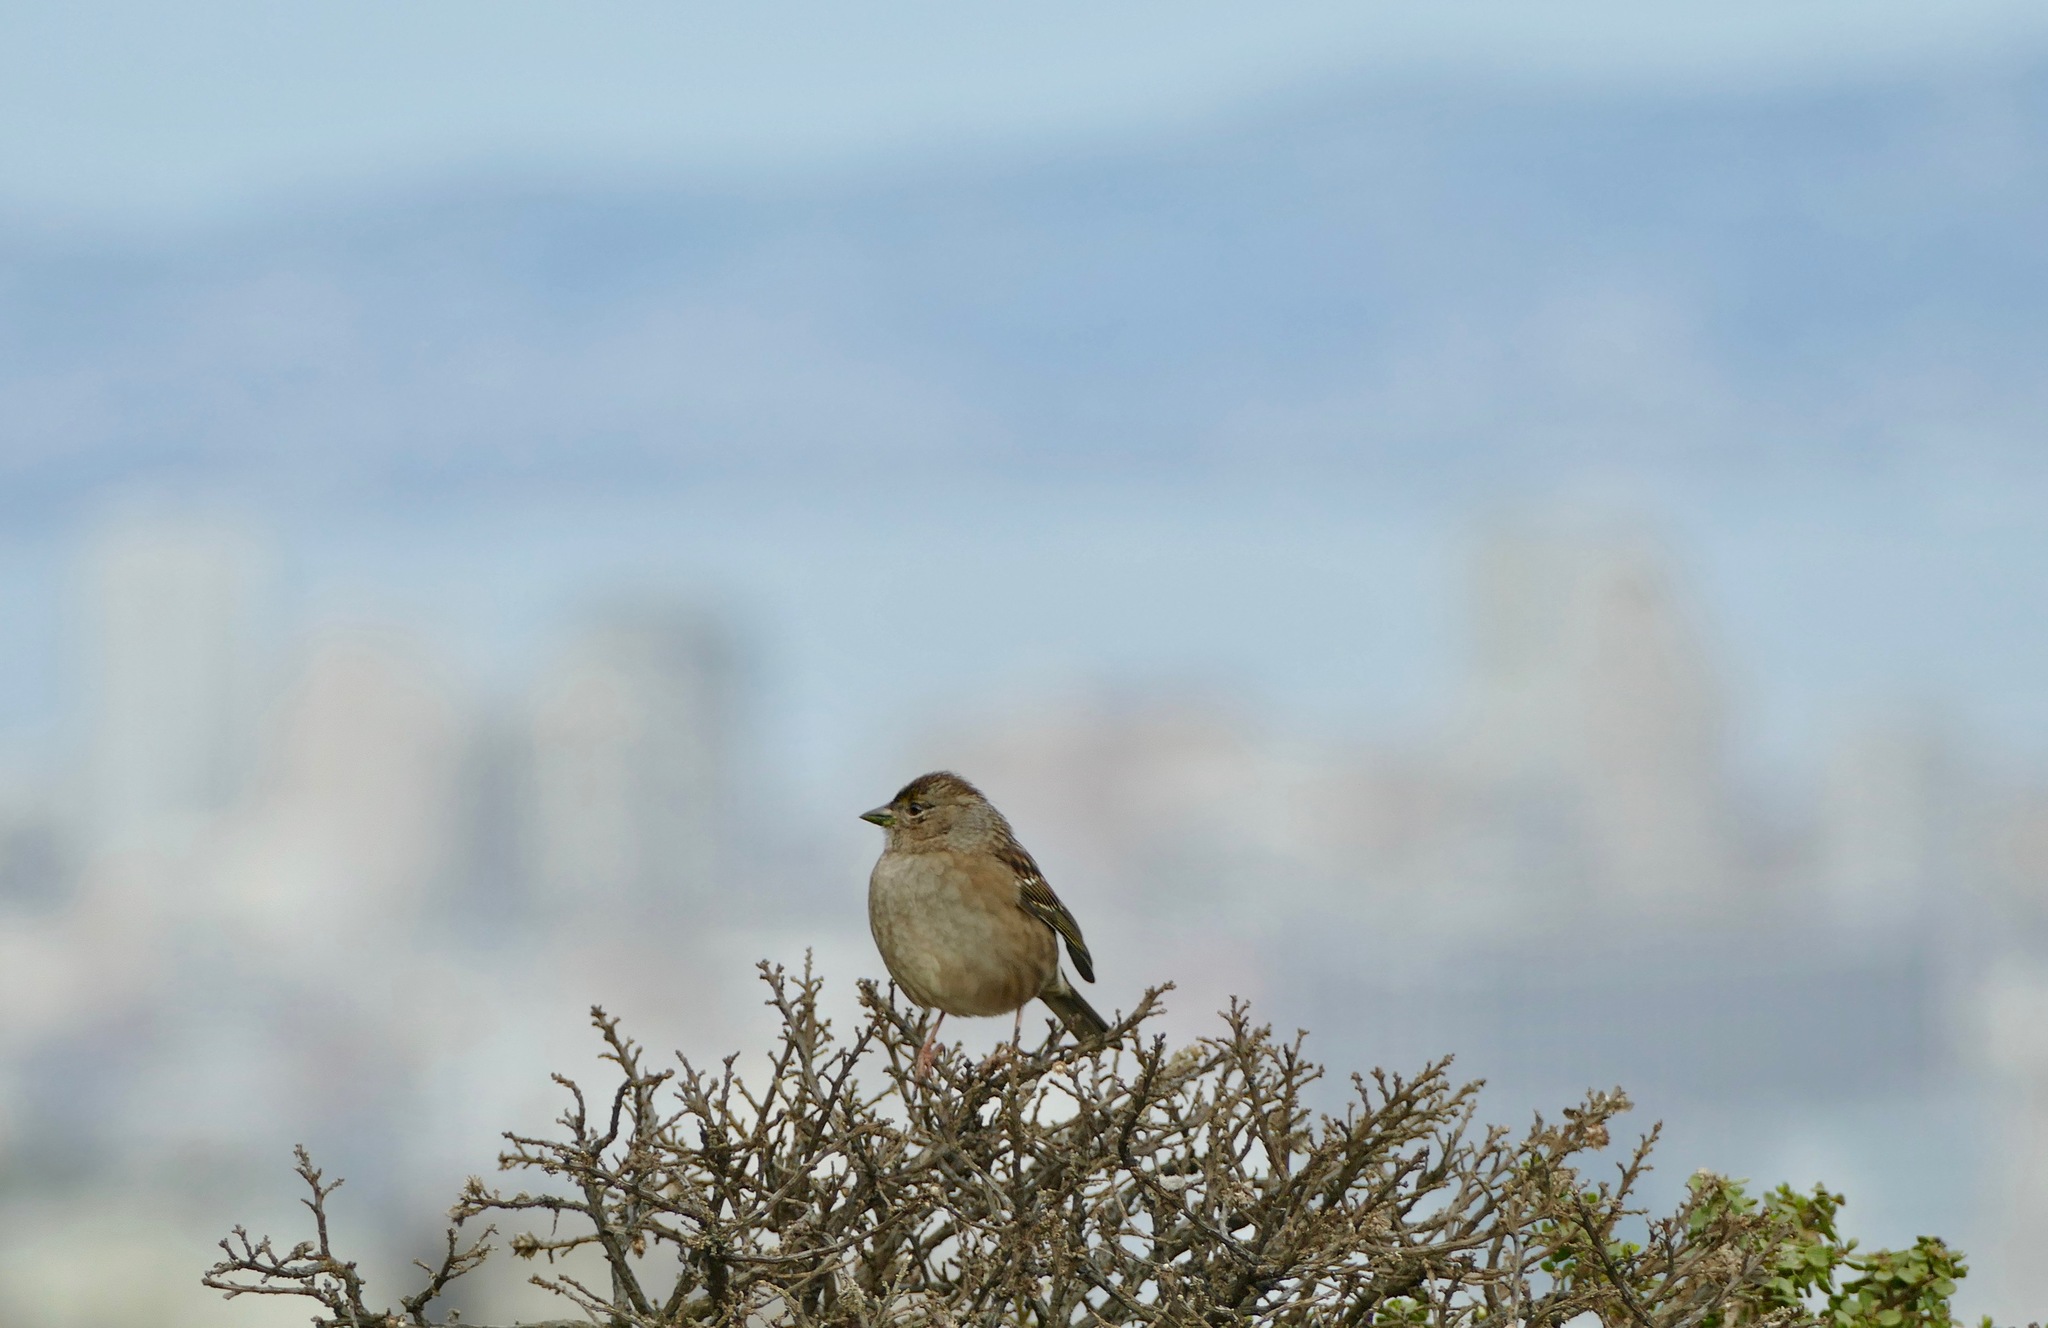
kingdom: Animalia
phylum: Chordata
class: Aves
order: Passeriformes
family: Passerellidae
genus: Zonotrichia
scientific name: Zonotrichia atricapilla
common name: Golden-crowned sparrow
